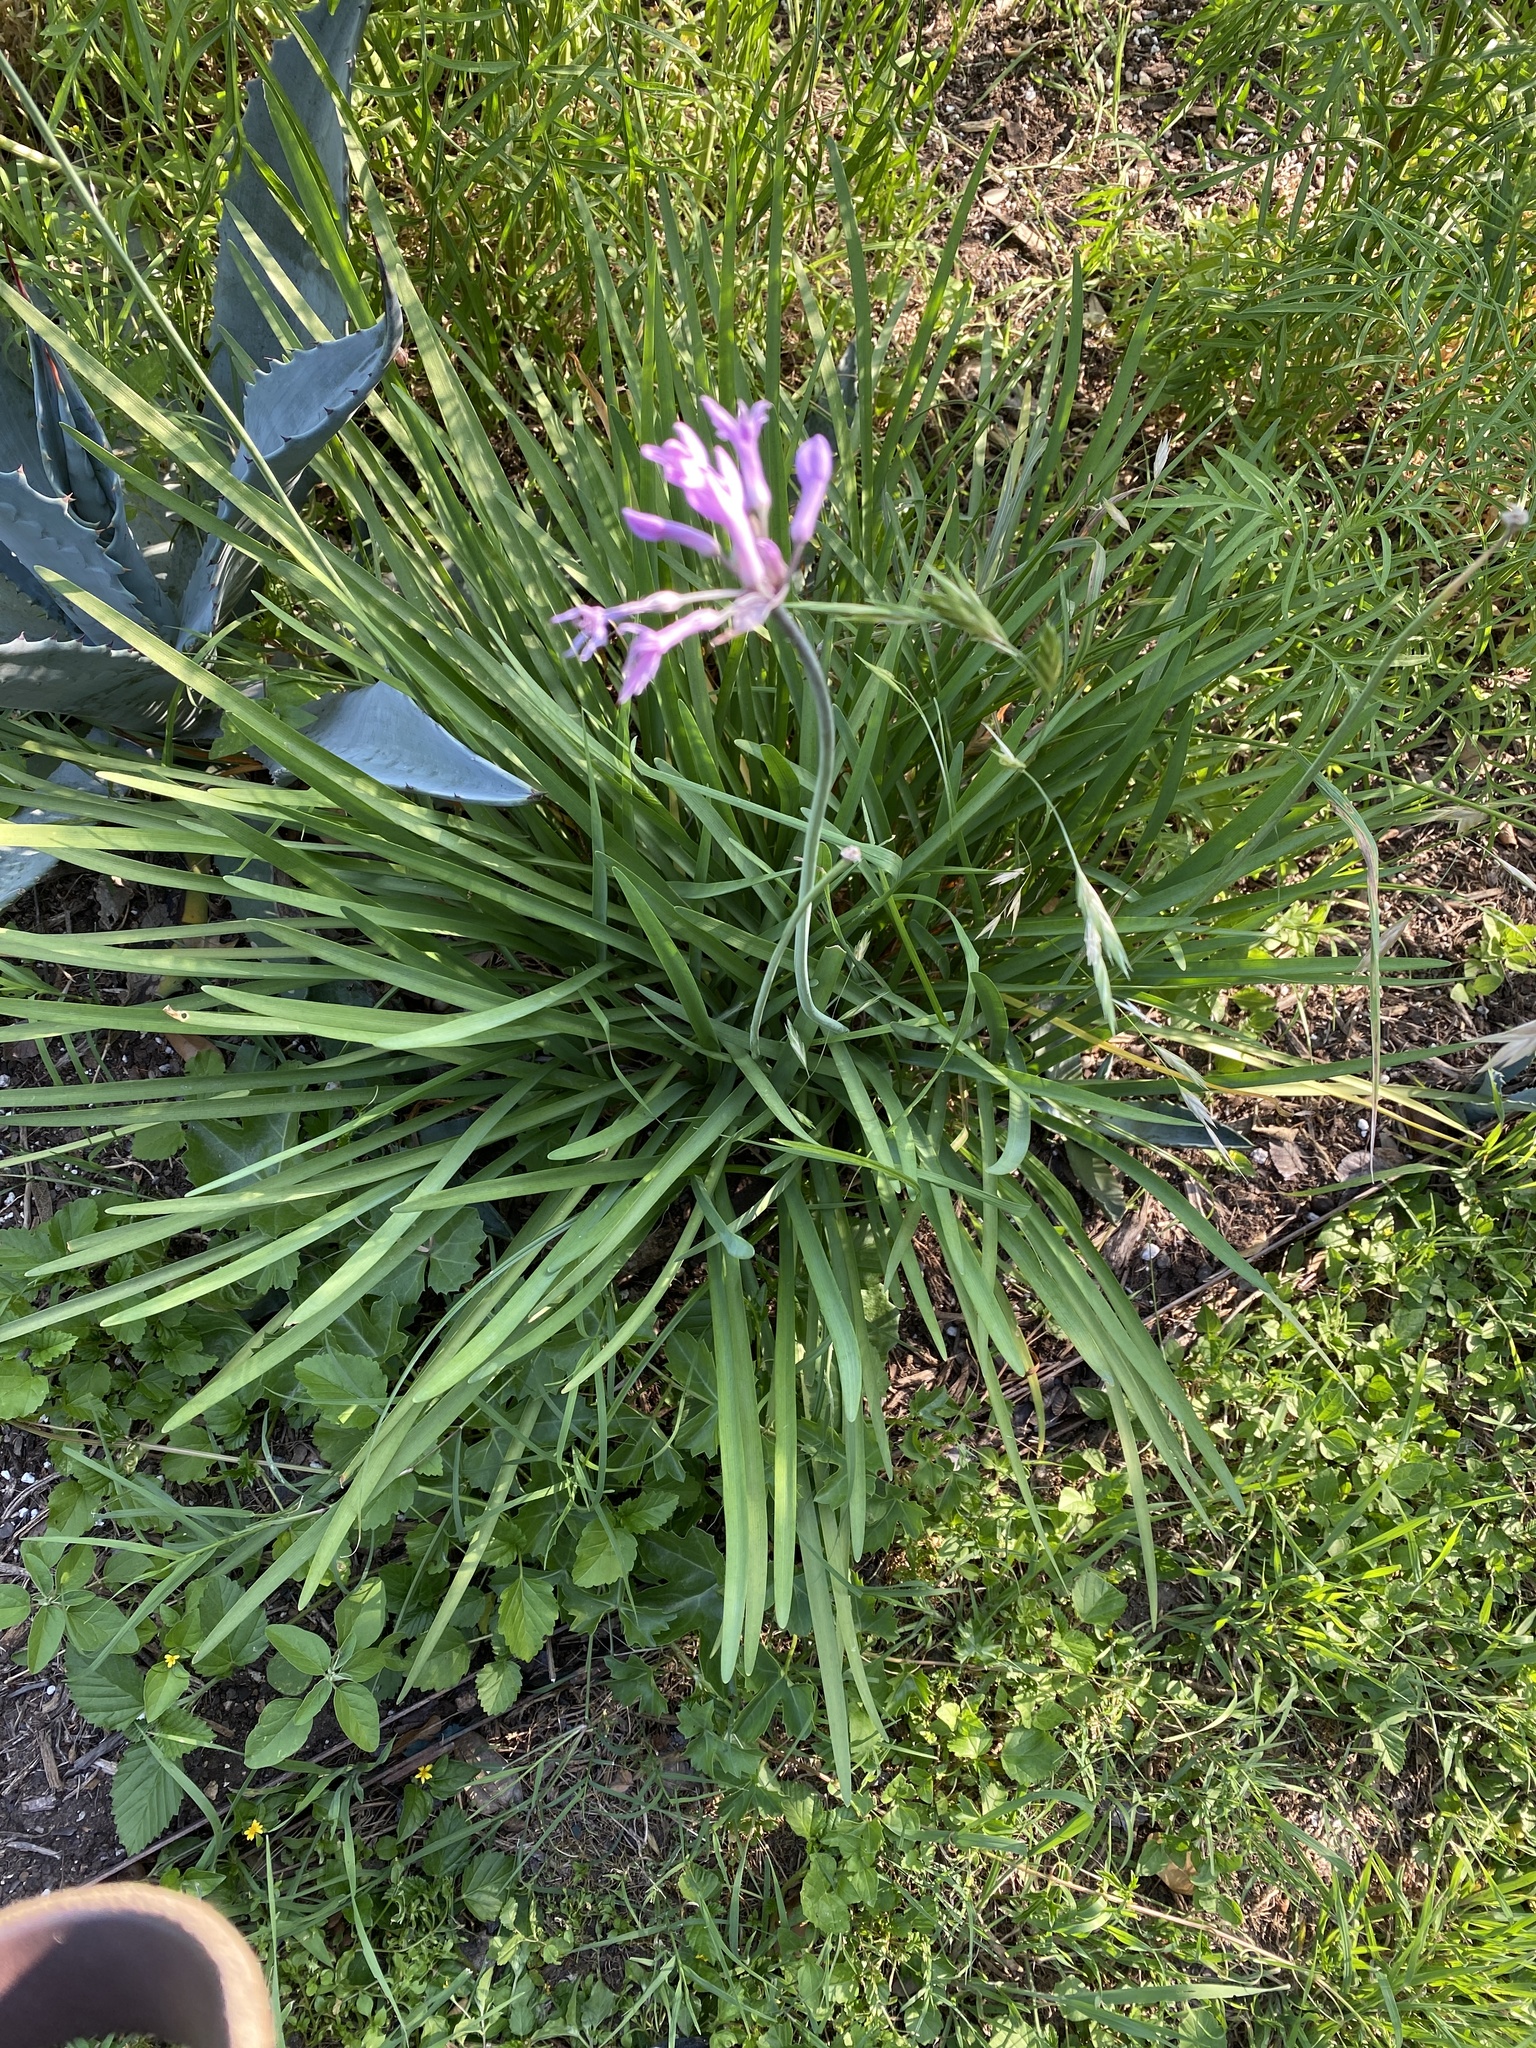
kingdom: Plantae
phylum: Tracheophyta
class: Liliopsida
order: Asparagales
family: Amaryllidaceae
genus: Tulbaghia
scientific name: Tulbaghia violacea
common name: Society garlic
